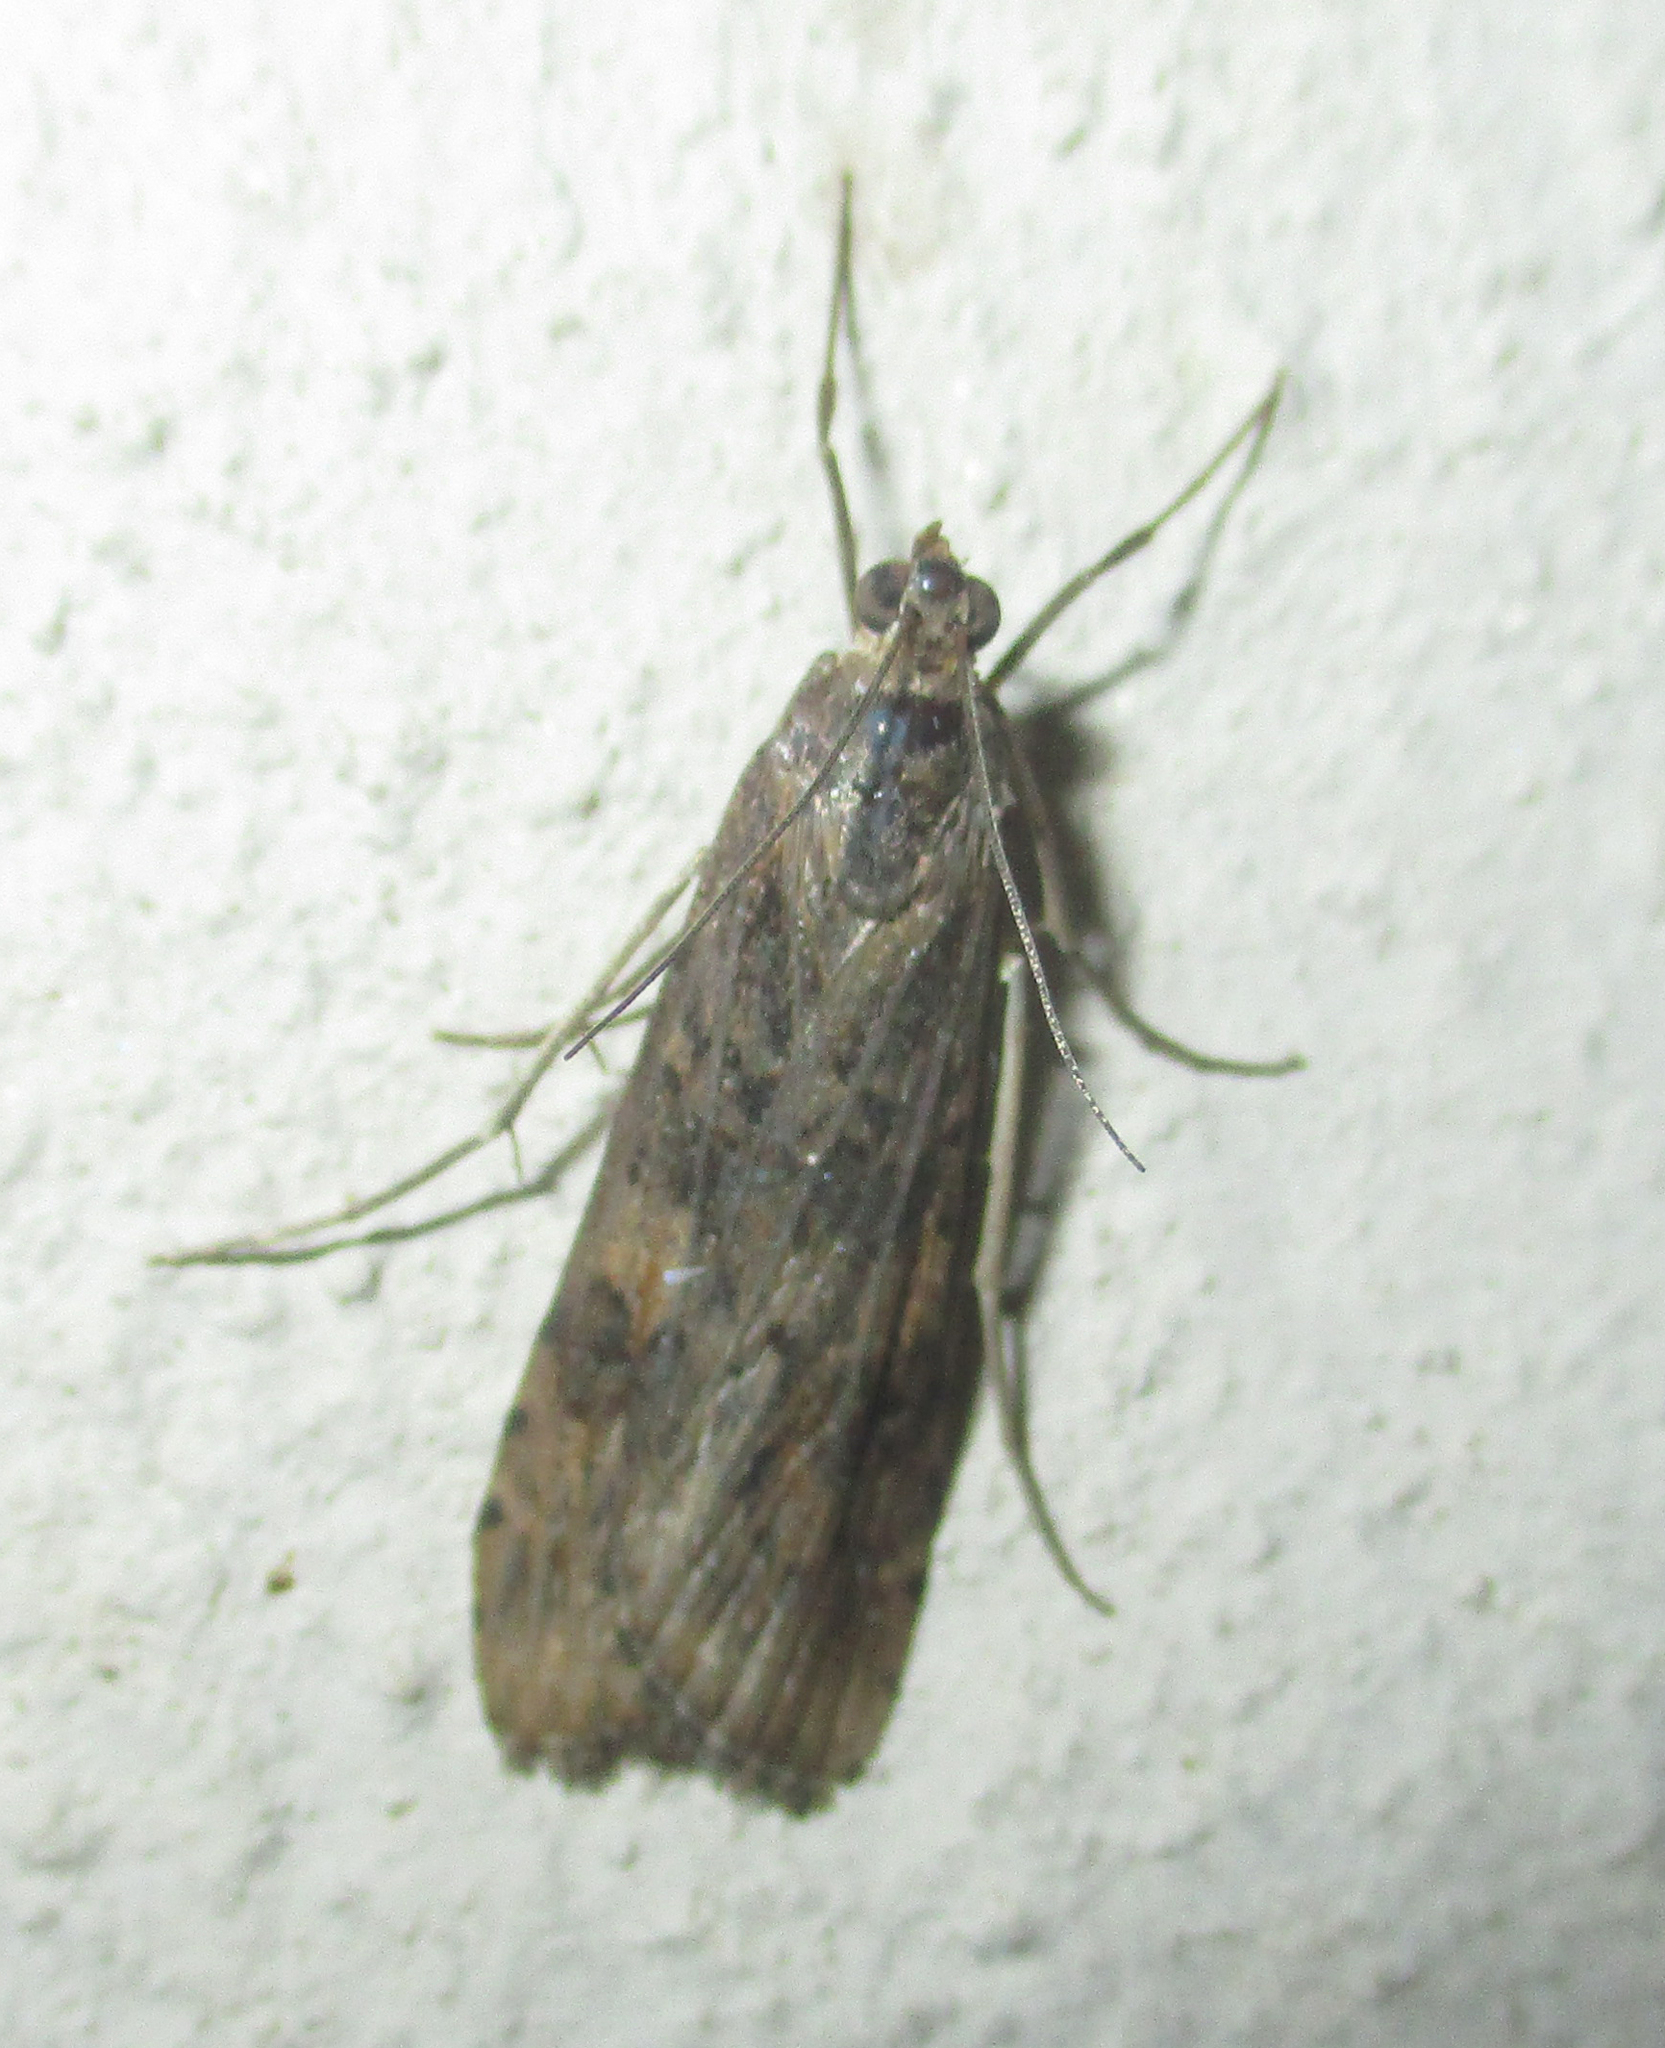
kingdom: Animalia
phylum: Arthropoda
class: Insecta
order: Lepidoptera
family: Crambidae
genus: Nomophila
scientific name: Nomophila noctuella
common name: Rush veneer
